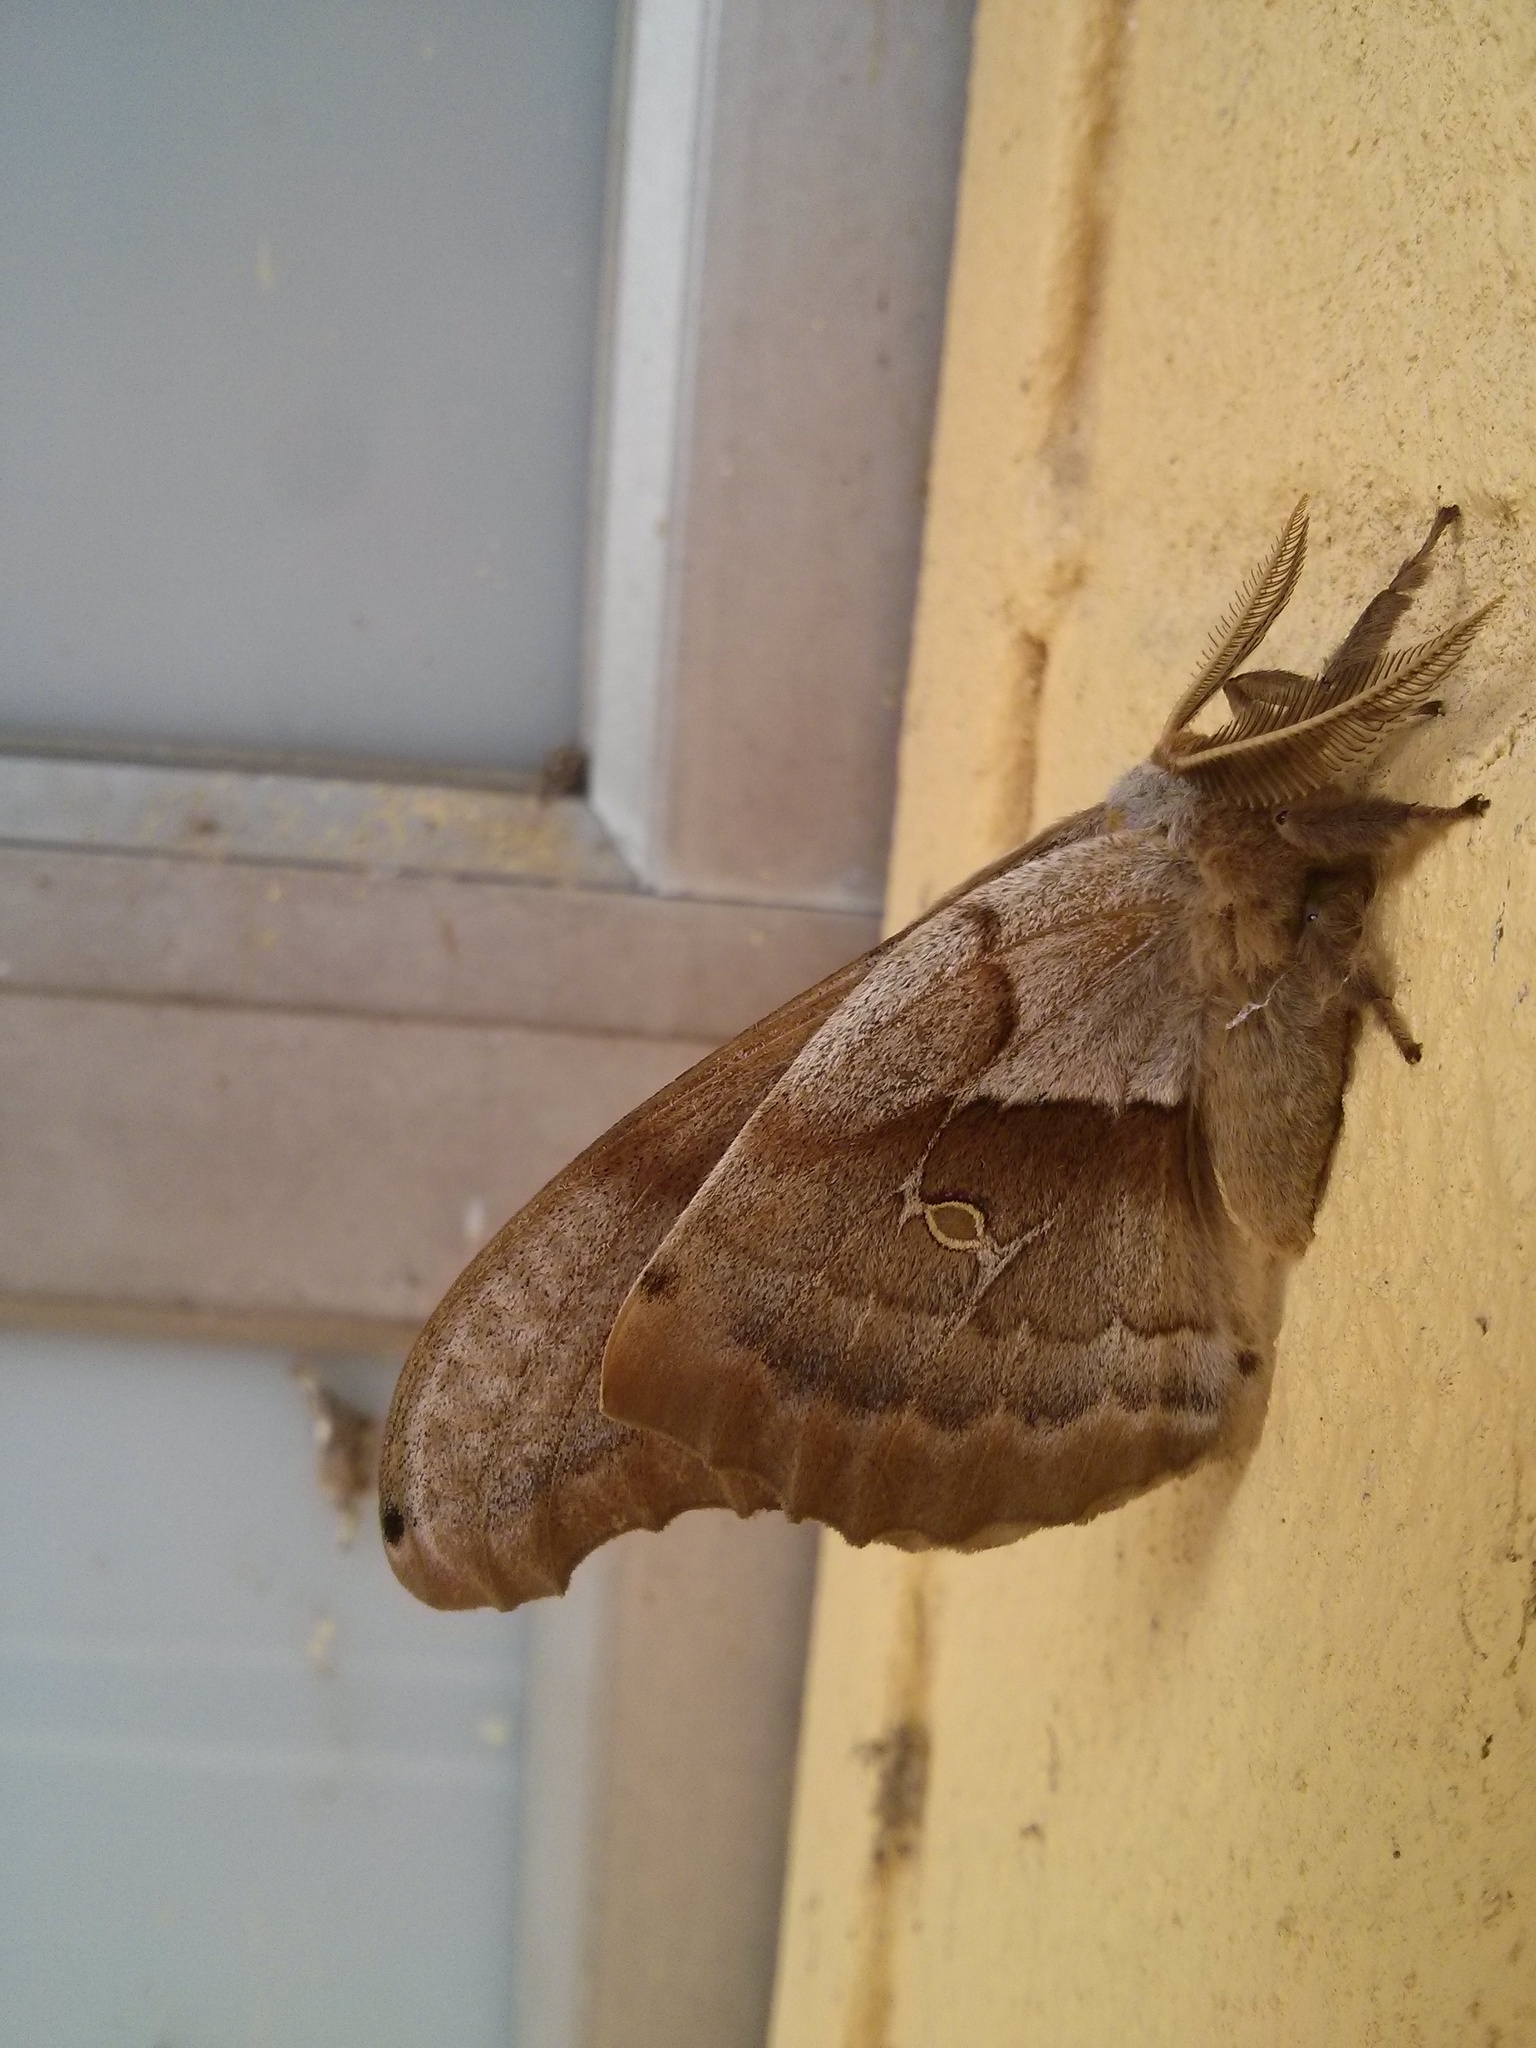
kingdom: Animalia
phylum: Arthropoda
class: Insecta
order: Lepidoptera
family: Saturniidae
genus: Antheraea
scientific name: Antheraea polyphemus
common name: Polyphemus moth
